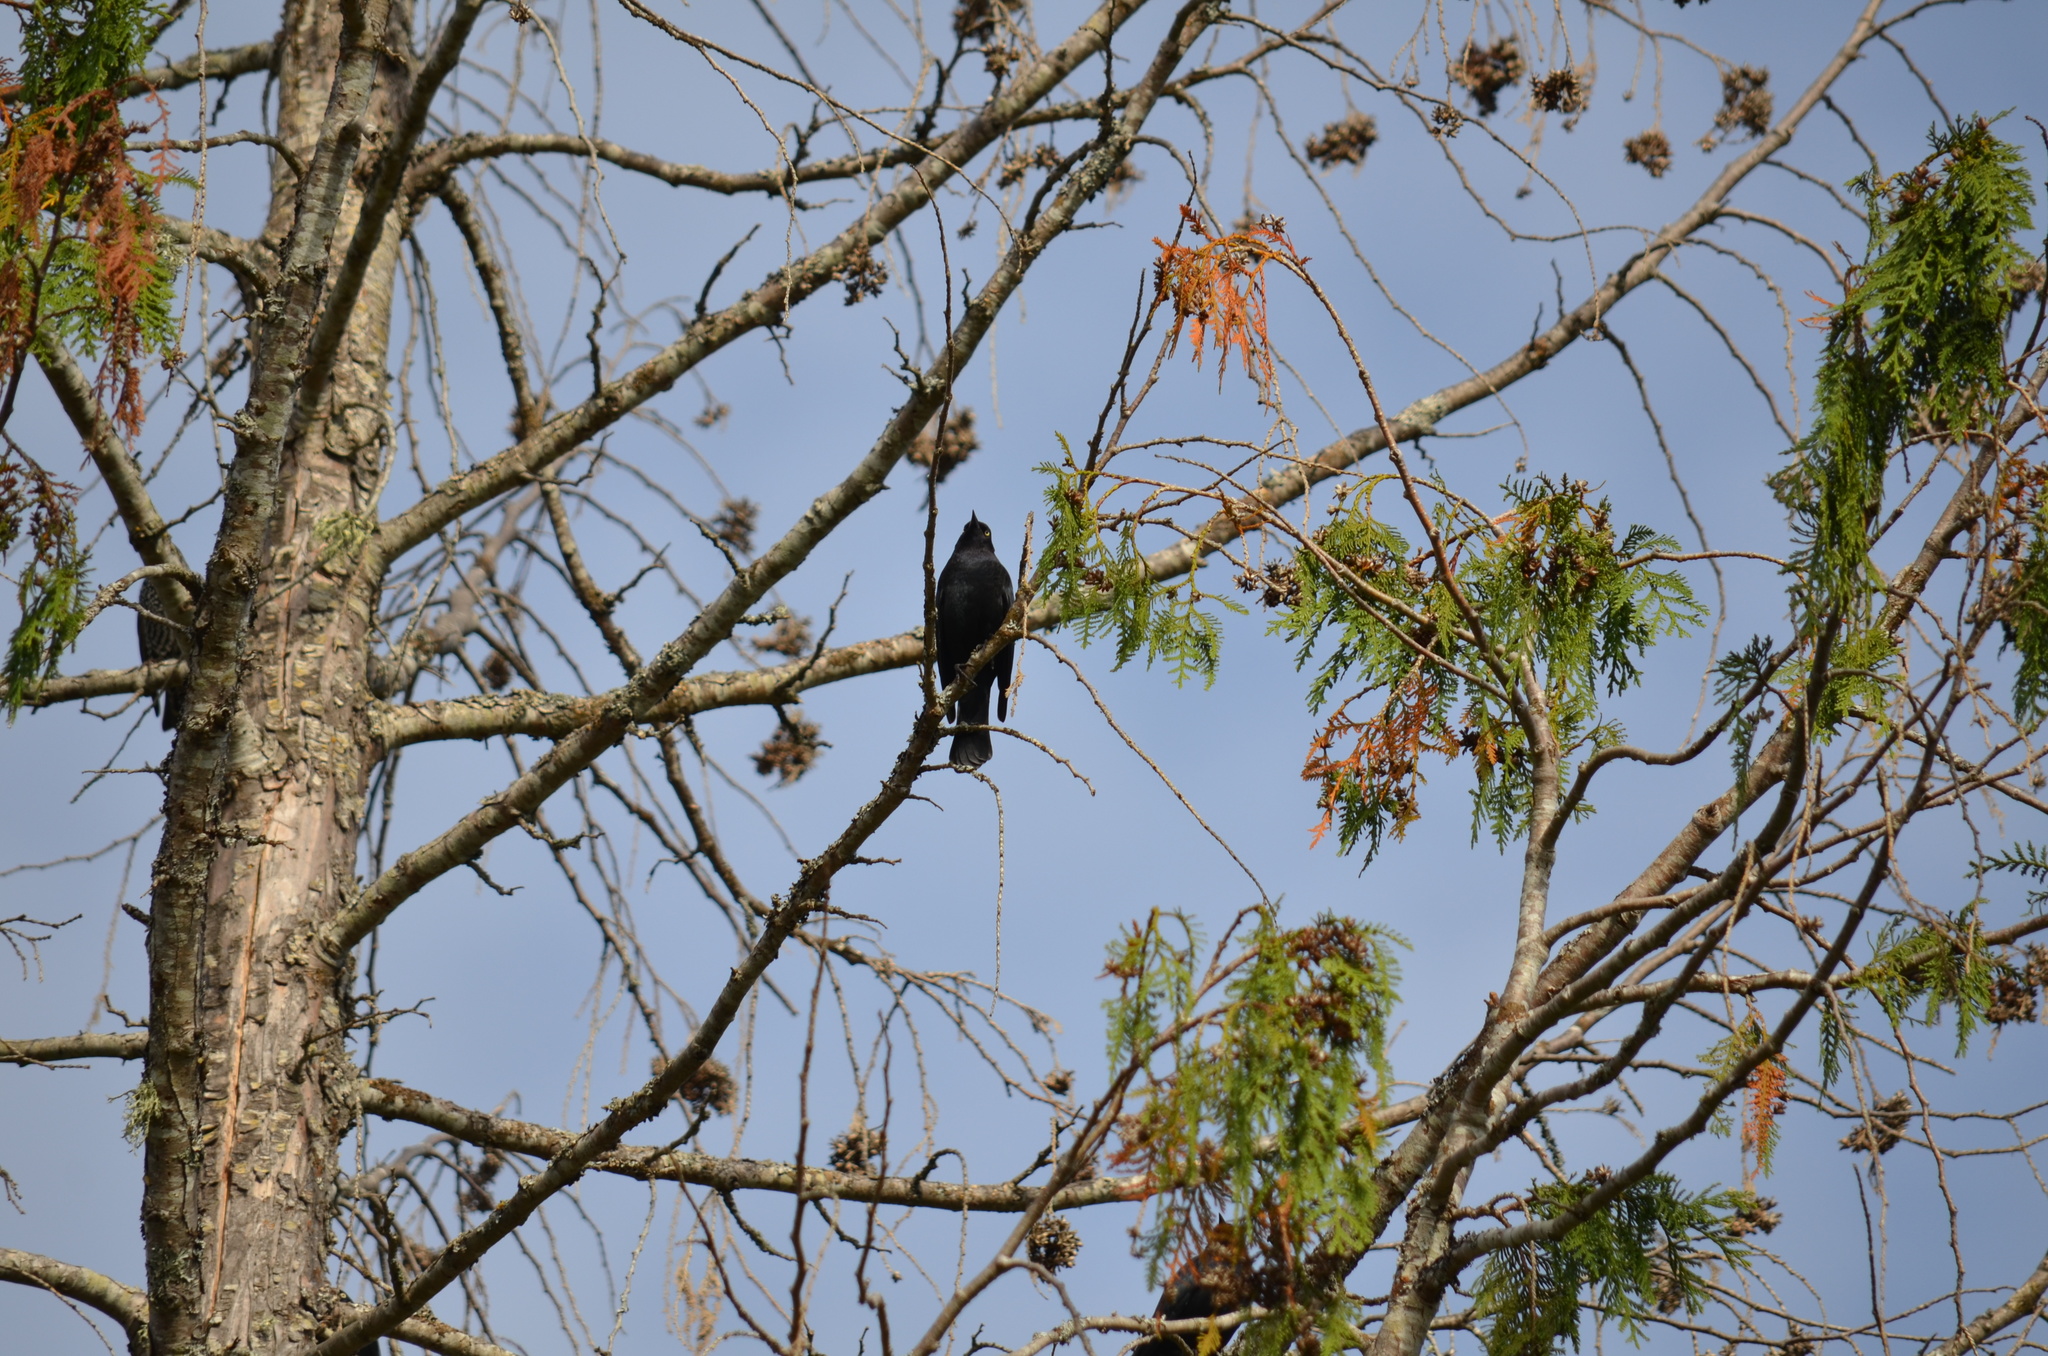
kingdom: Animalia
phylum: Chordata
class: Aves
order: Passeriformes
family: Icteridae
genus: Euphagus
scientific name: Euphagus cyanocephalus
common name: Brewer's blackbird
